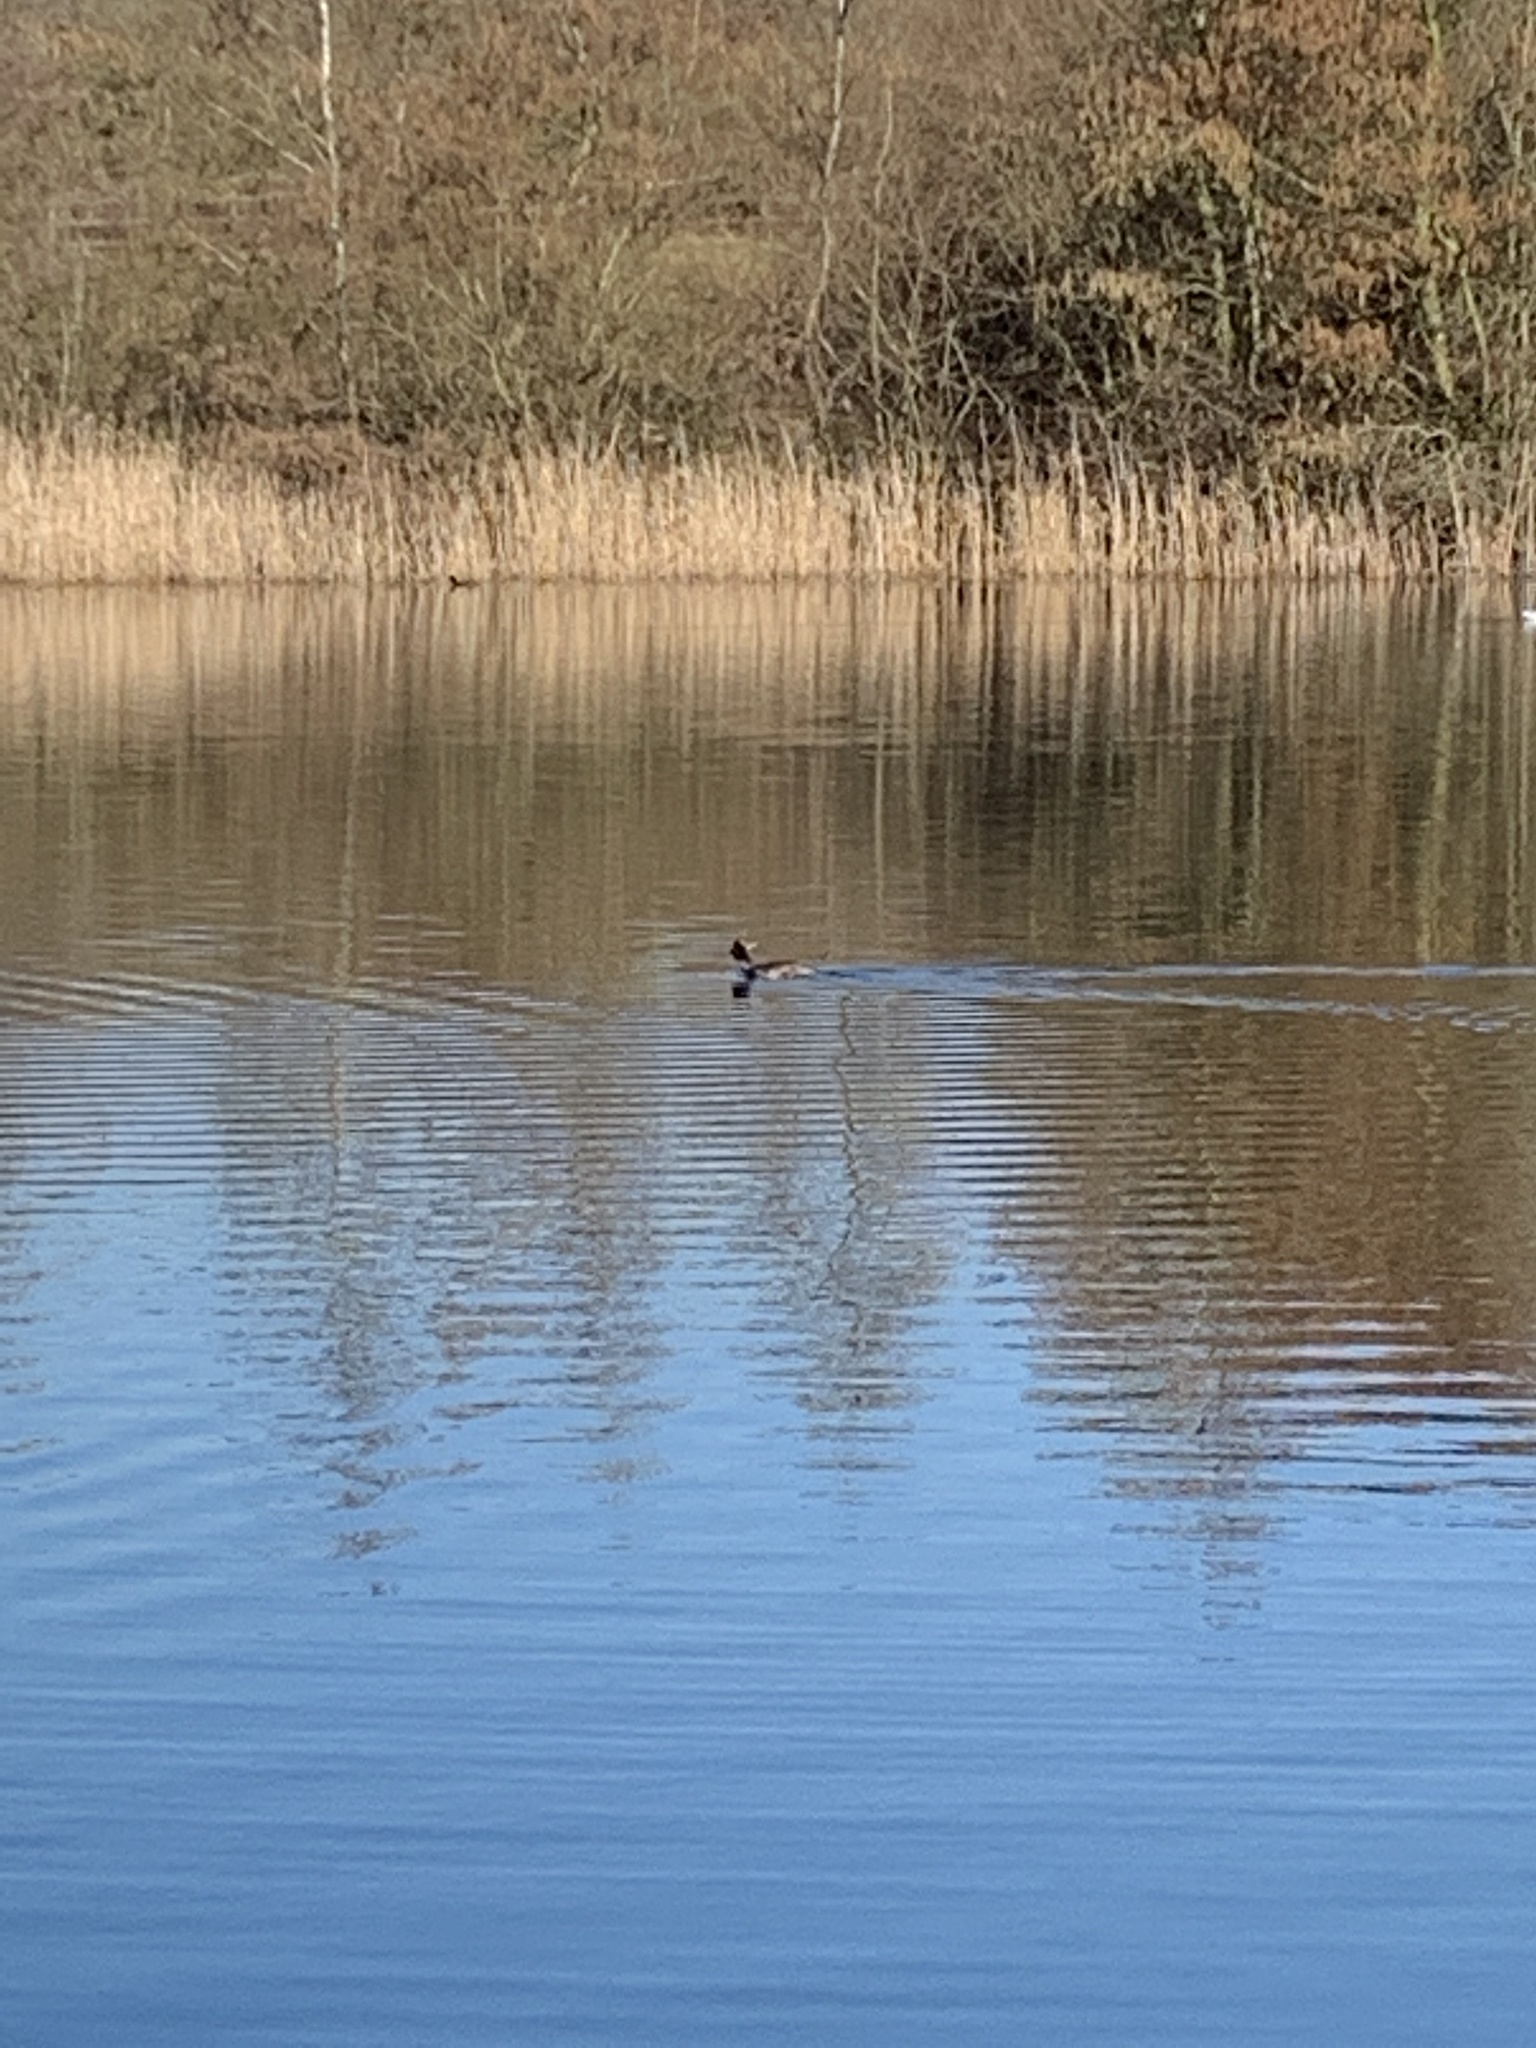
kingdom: Animalia
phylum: Chordata
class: Aves
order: Podicipediformes
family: Podicipedidae
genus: Podiceps
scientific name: Podiceps cristatus
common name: Great crested grebe
